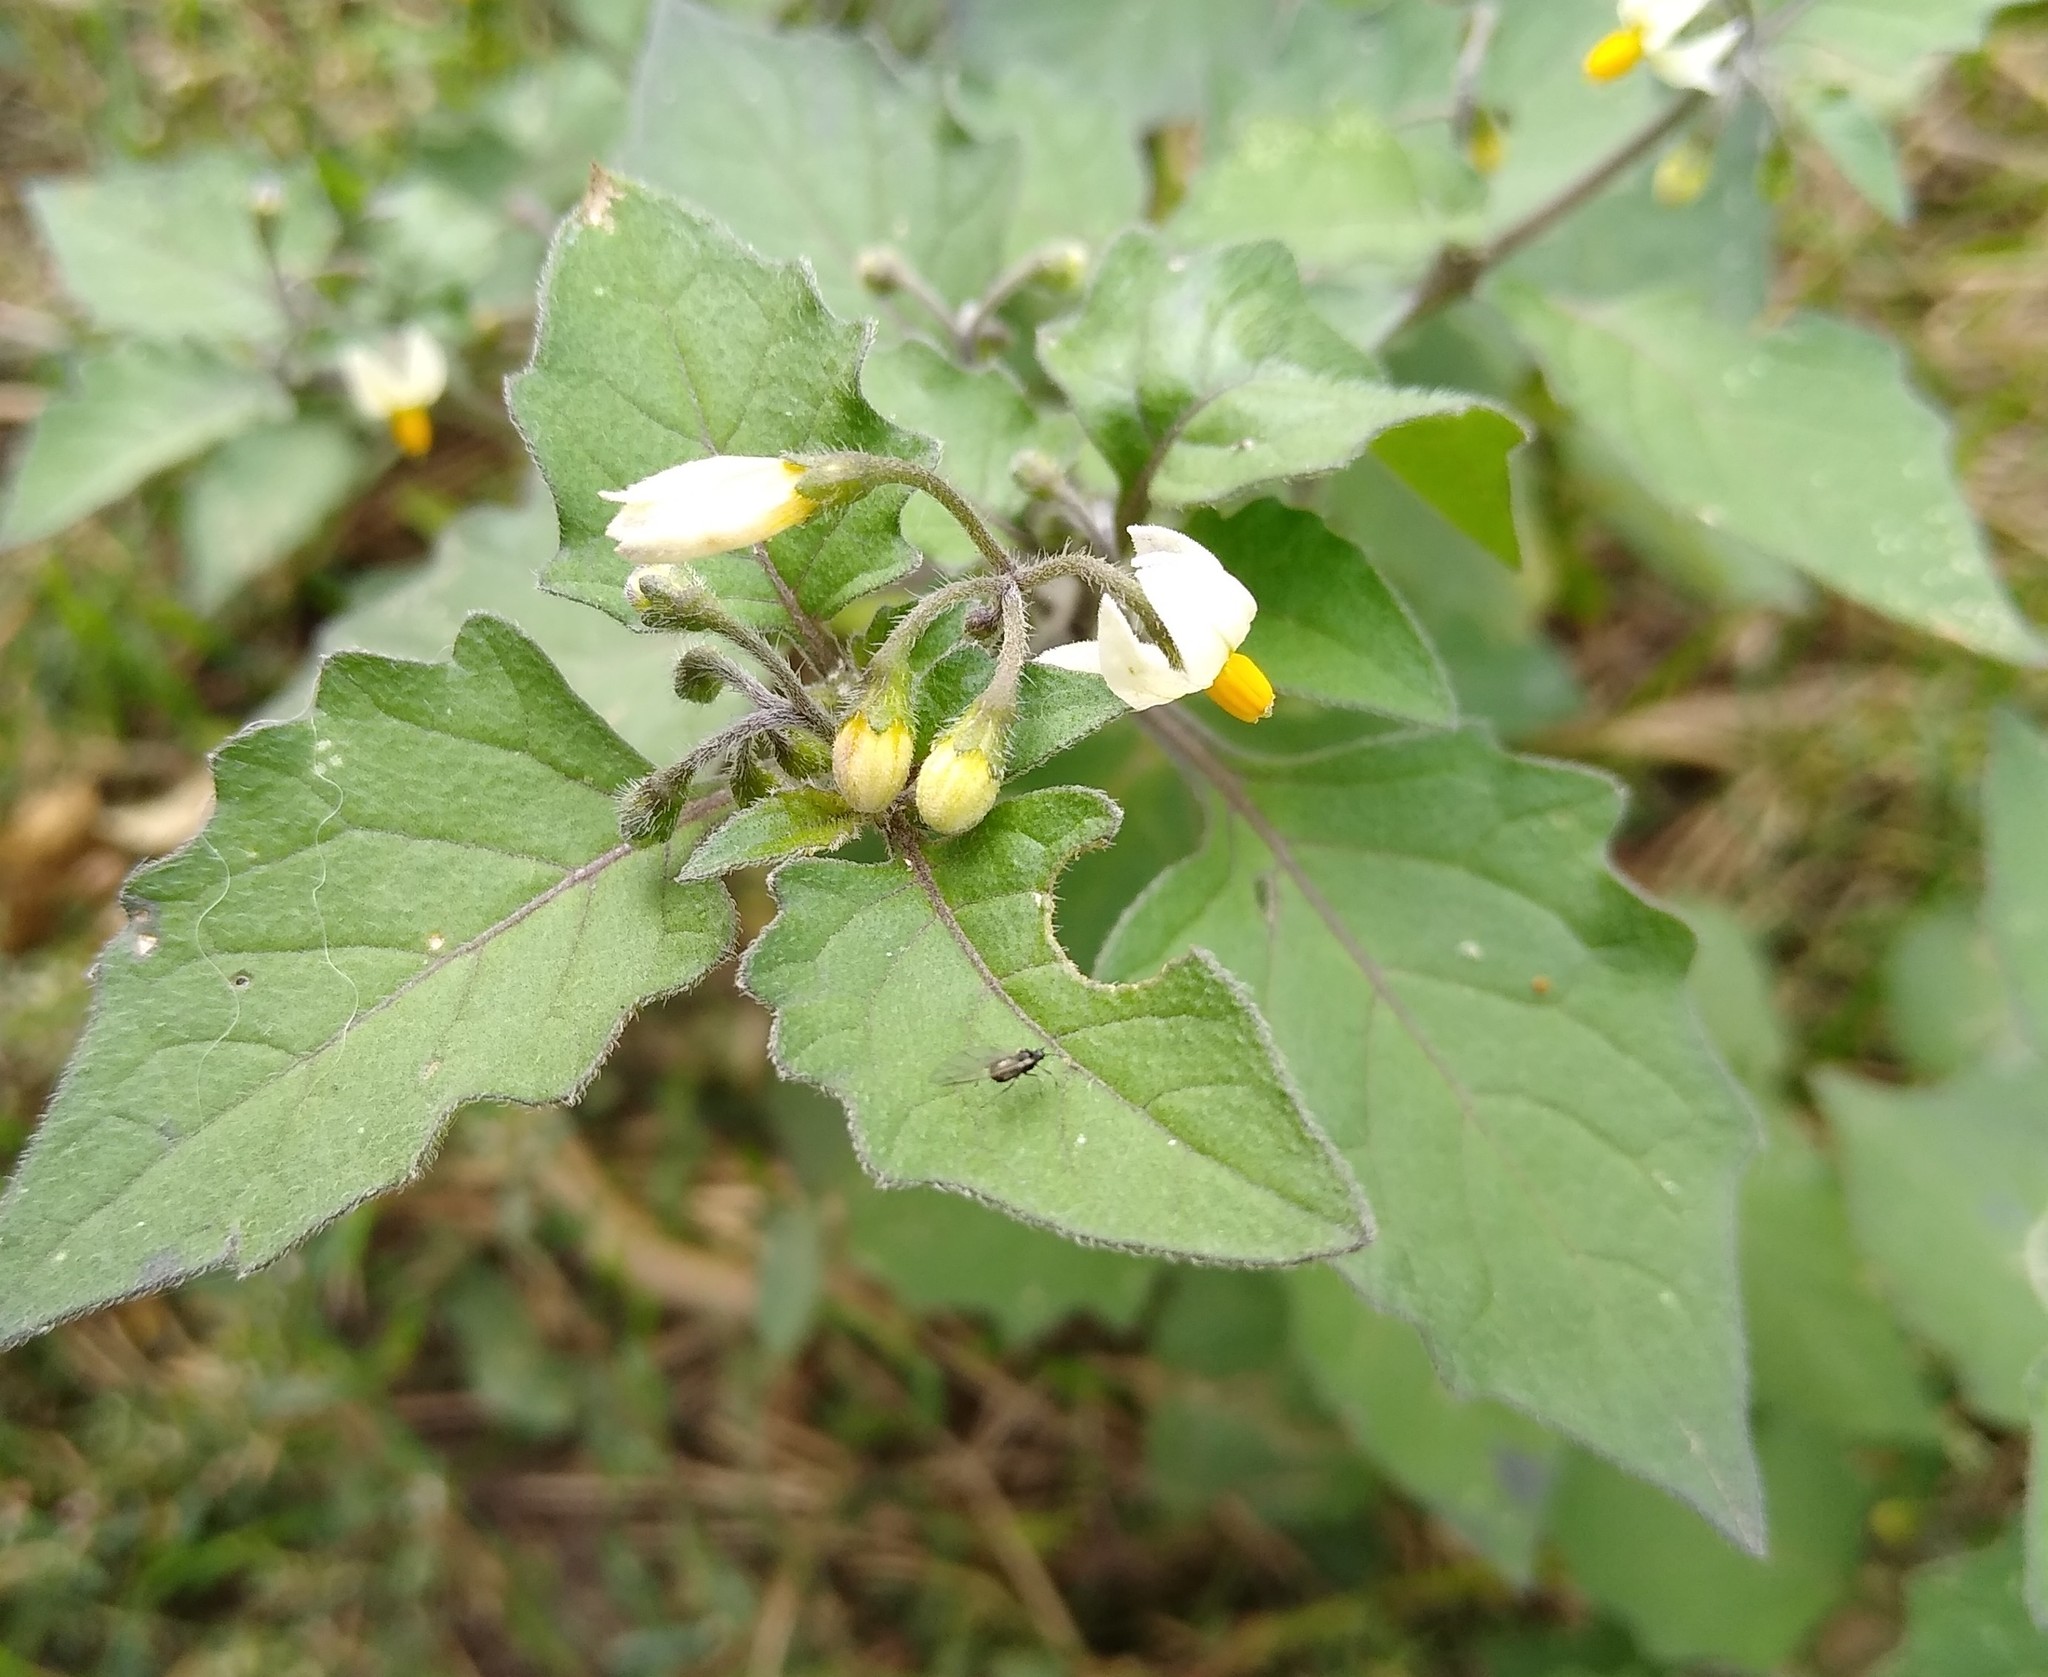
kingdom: Plantae
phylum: Tracheophyta
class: Magnoliopsida
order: Solanales
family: Solanaceae
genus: Solanum
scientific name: Solanum nigrum
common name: Black nightshade
